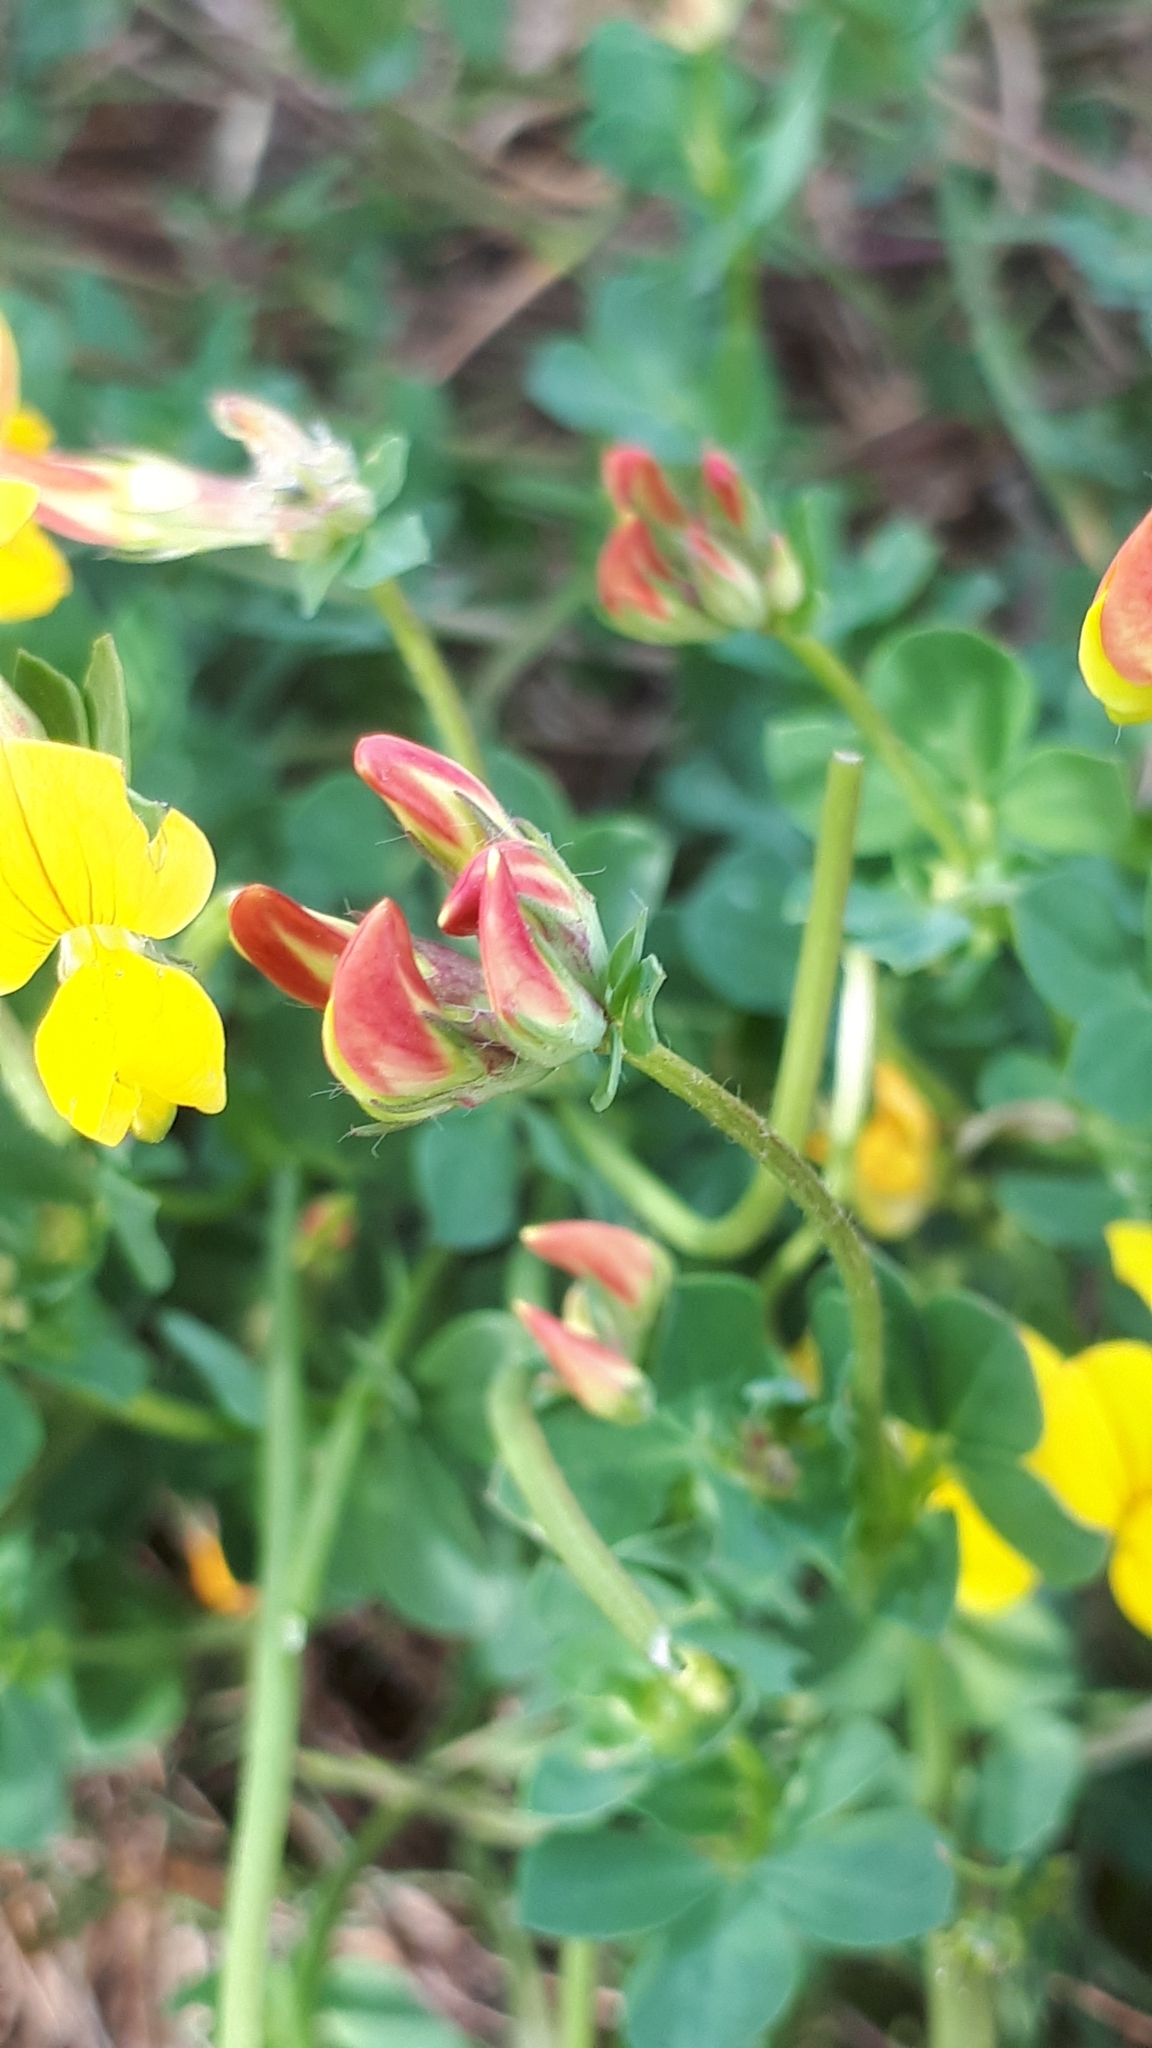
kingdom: Plantae
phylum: Tracheophyta
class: Magnoliopsida
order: Fabales
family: Fabaceae
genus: Lotus
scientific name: Lotus corniculatus
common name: Common bird's-foot-trefoil
